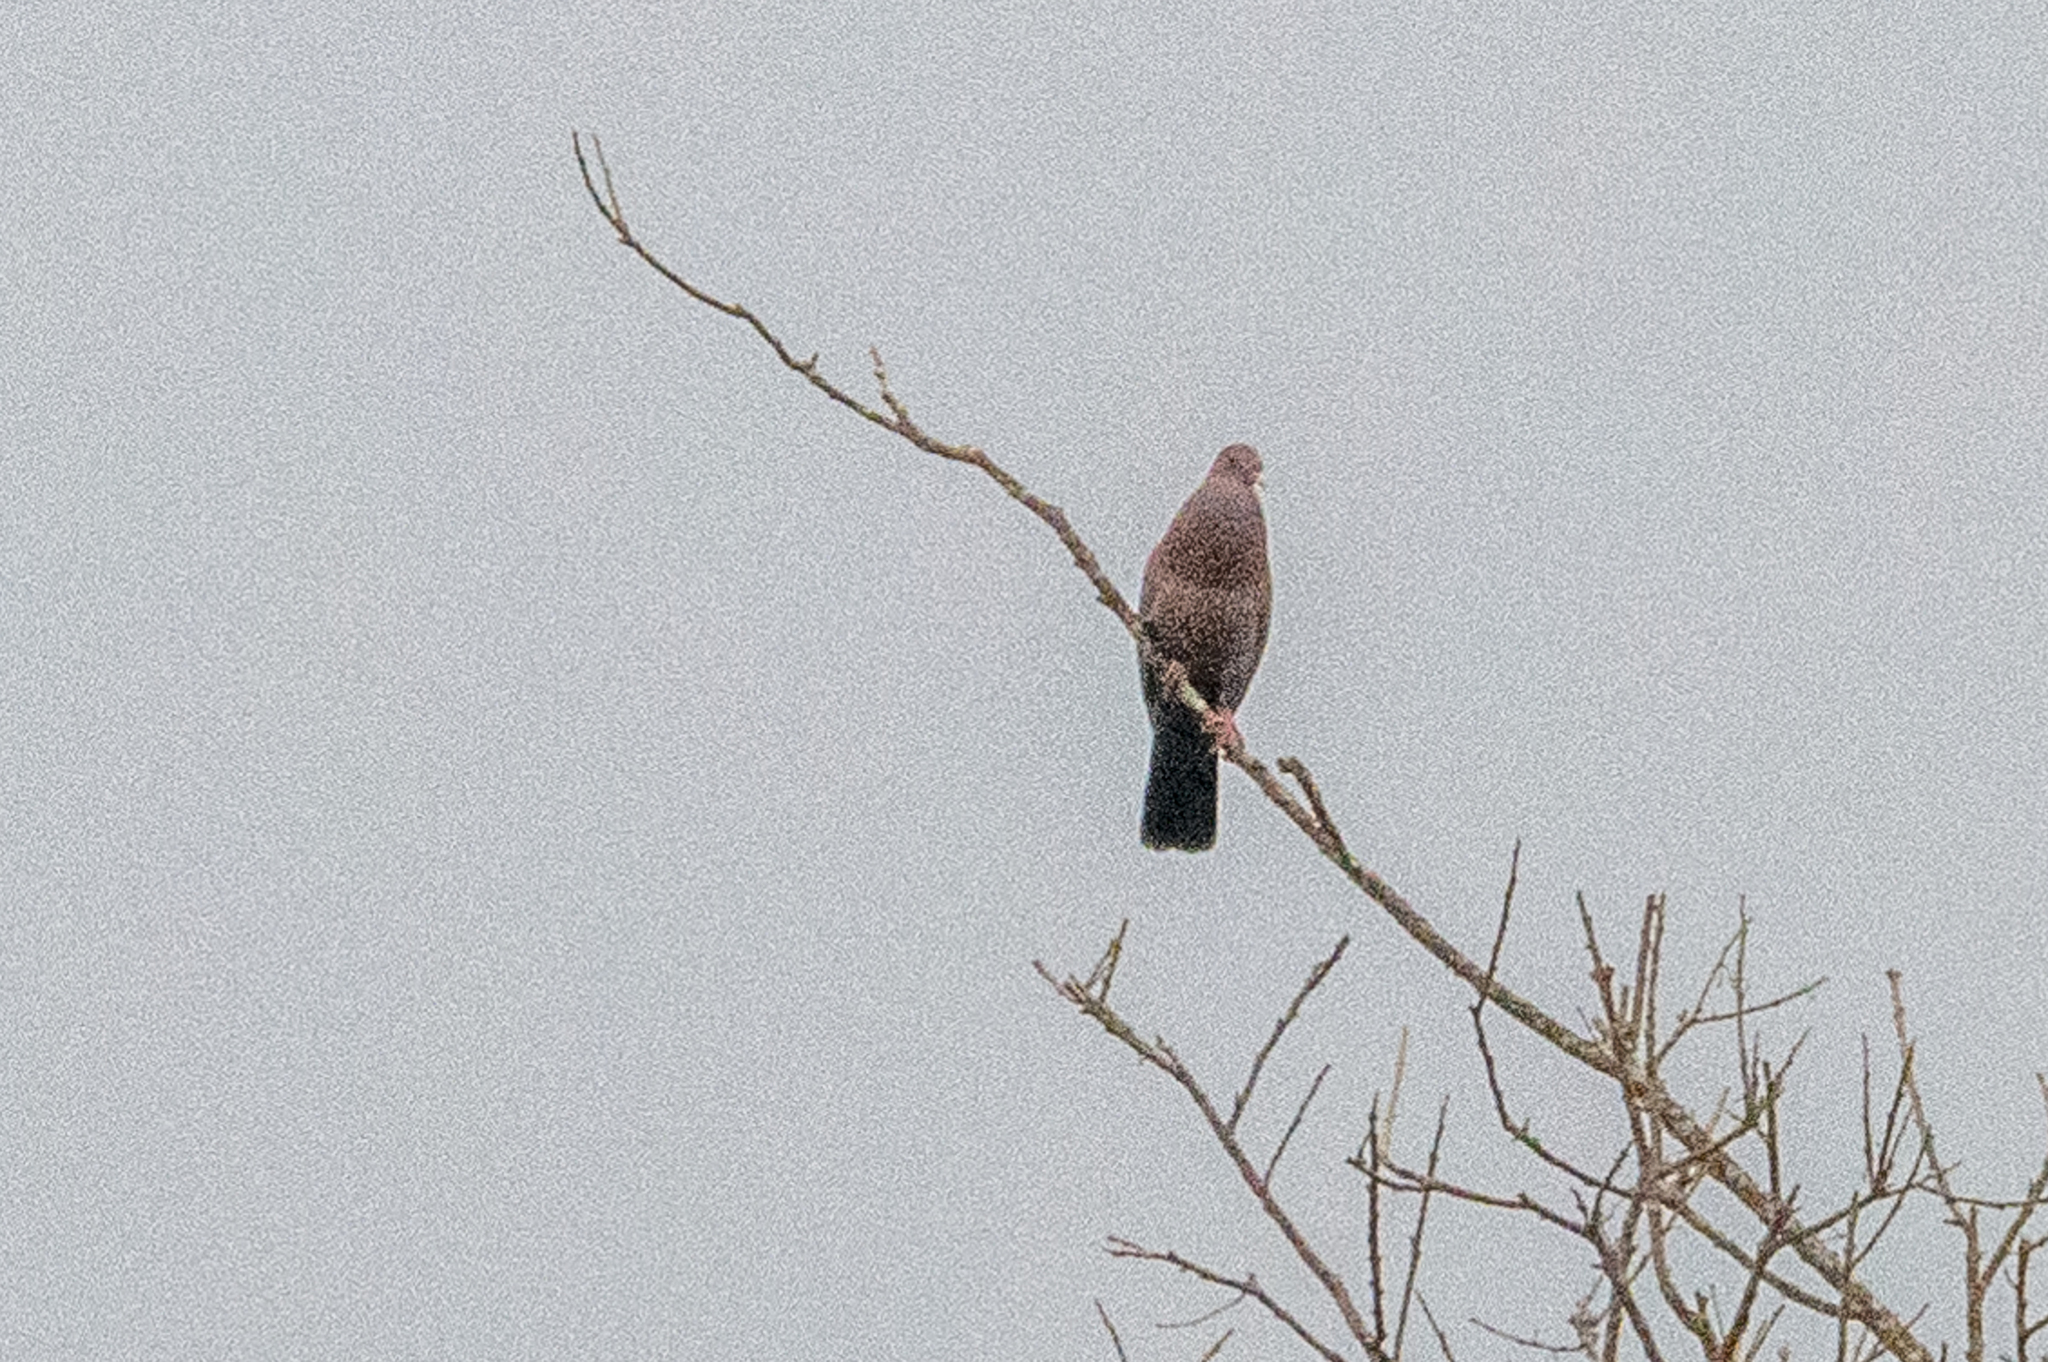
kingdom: Animalia
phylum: Chordata
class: Aves
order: Columbiformes
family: Columbidae
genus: Patagioenas
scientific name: Patagioenas flavirostris
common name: Red-billed pigeon
